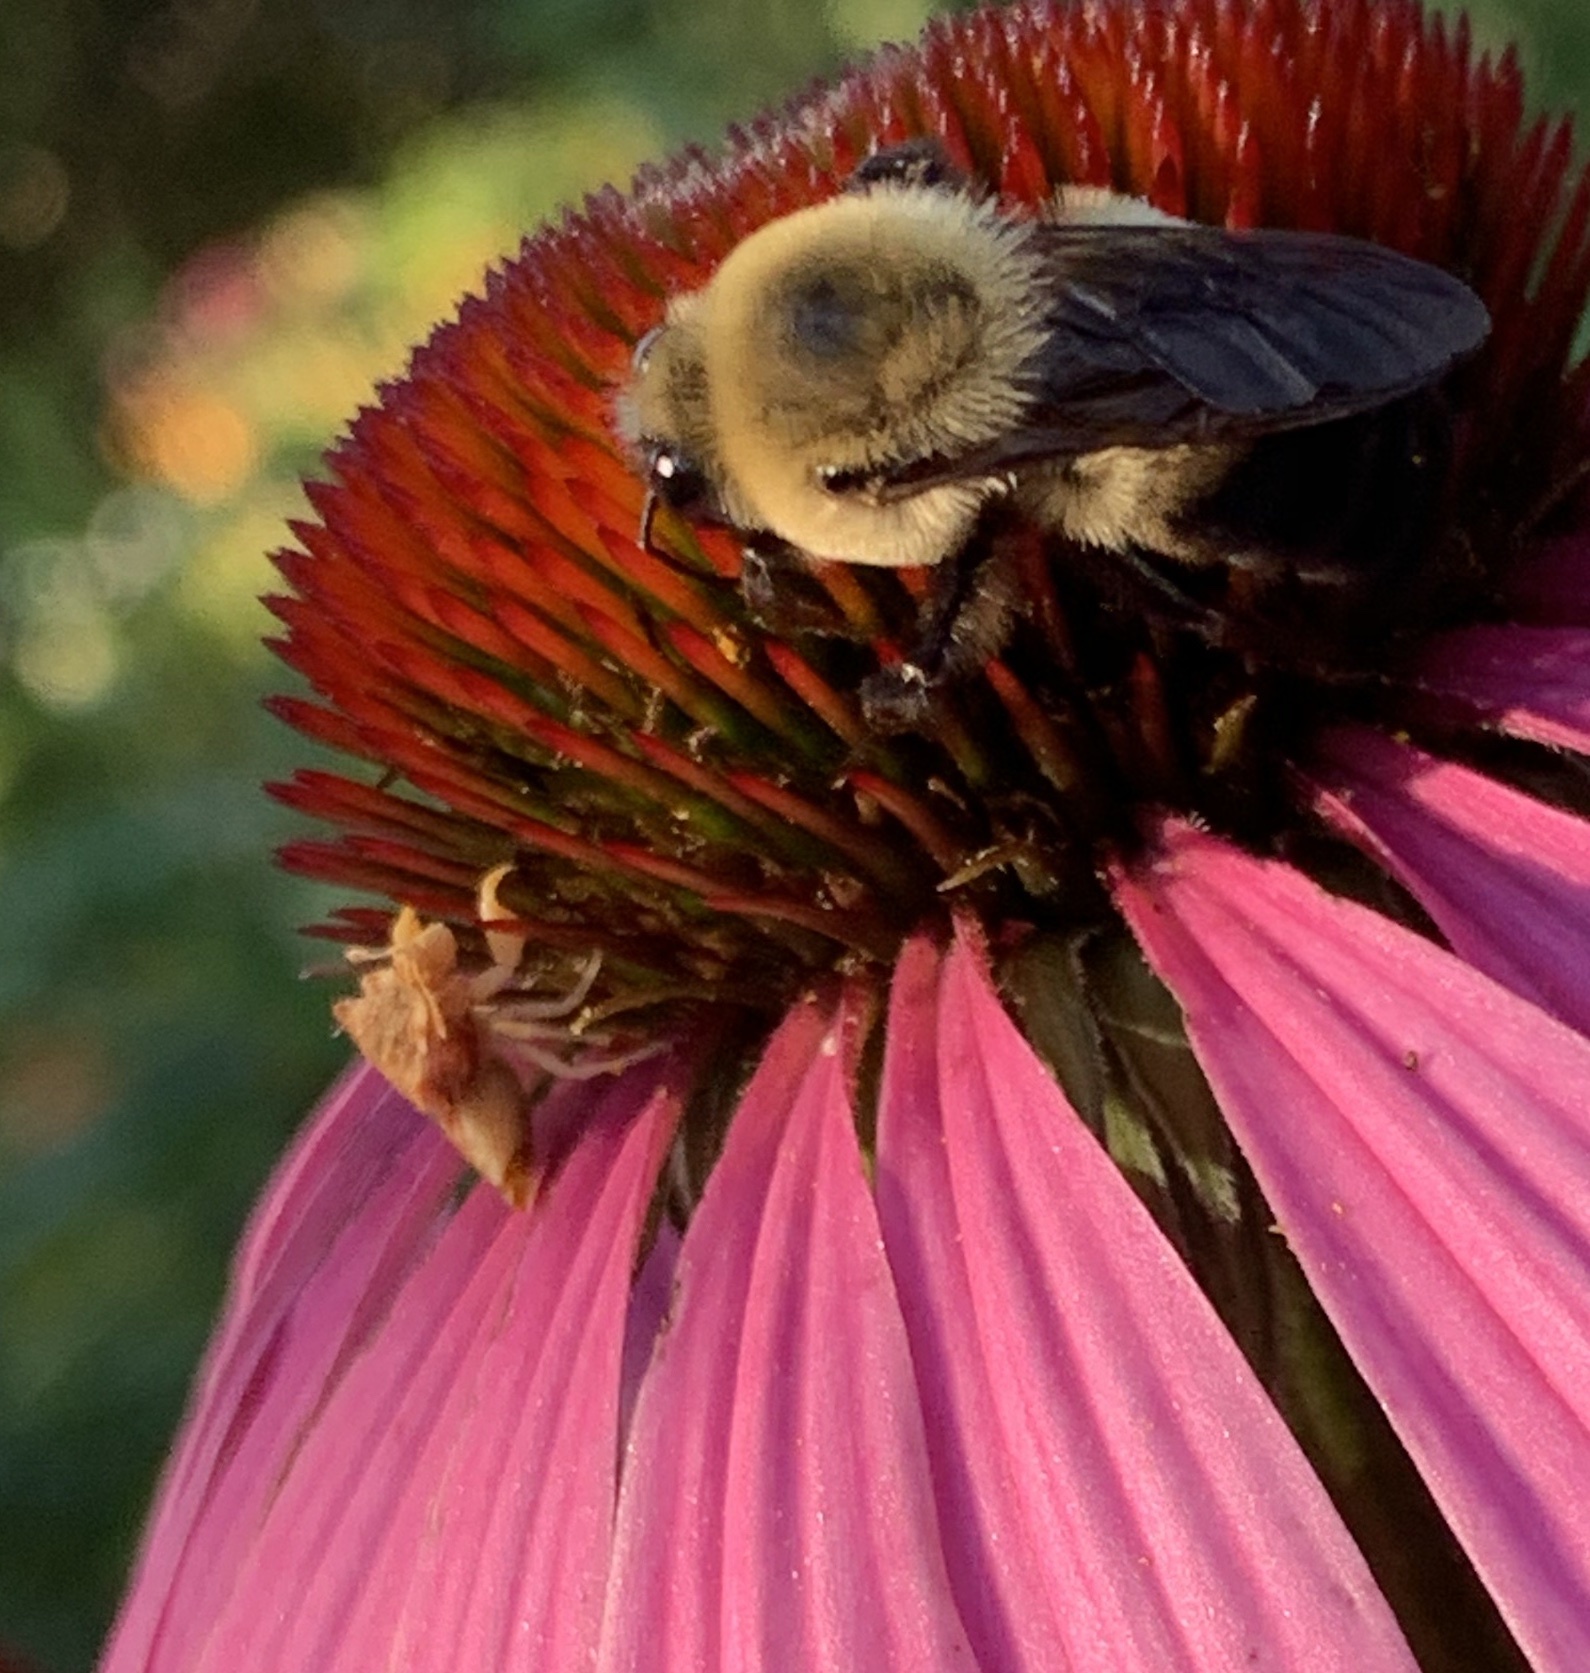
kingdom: Animalia
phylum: Arthropoda
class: Insecta
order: Hemiptera
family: Reduviidae
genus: Phymata
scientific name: Phymata americana
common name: Jagged ambush bug
